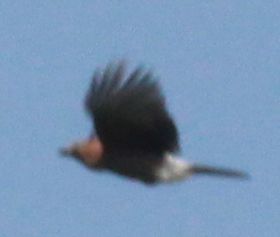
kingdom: Animalia
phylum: Chordata
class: Aves
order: Passeriformes
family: Corvidae
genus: Garrulus
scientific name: Garrulus glandarius
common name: Eurasian jay
